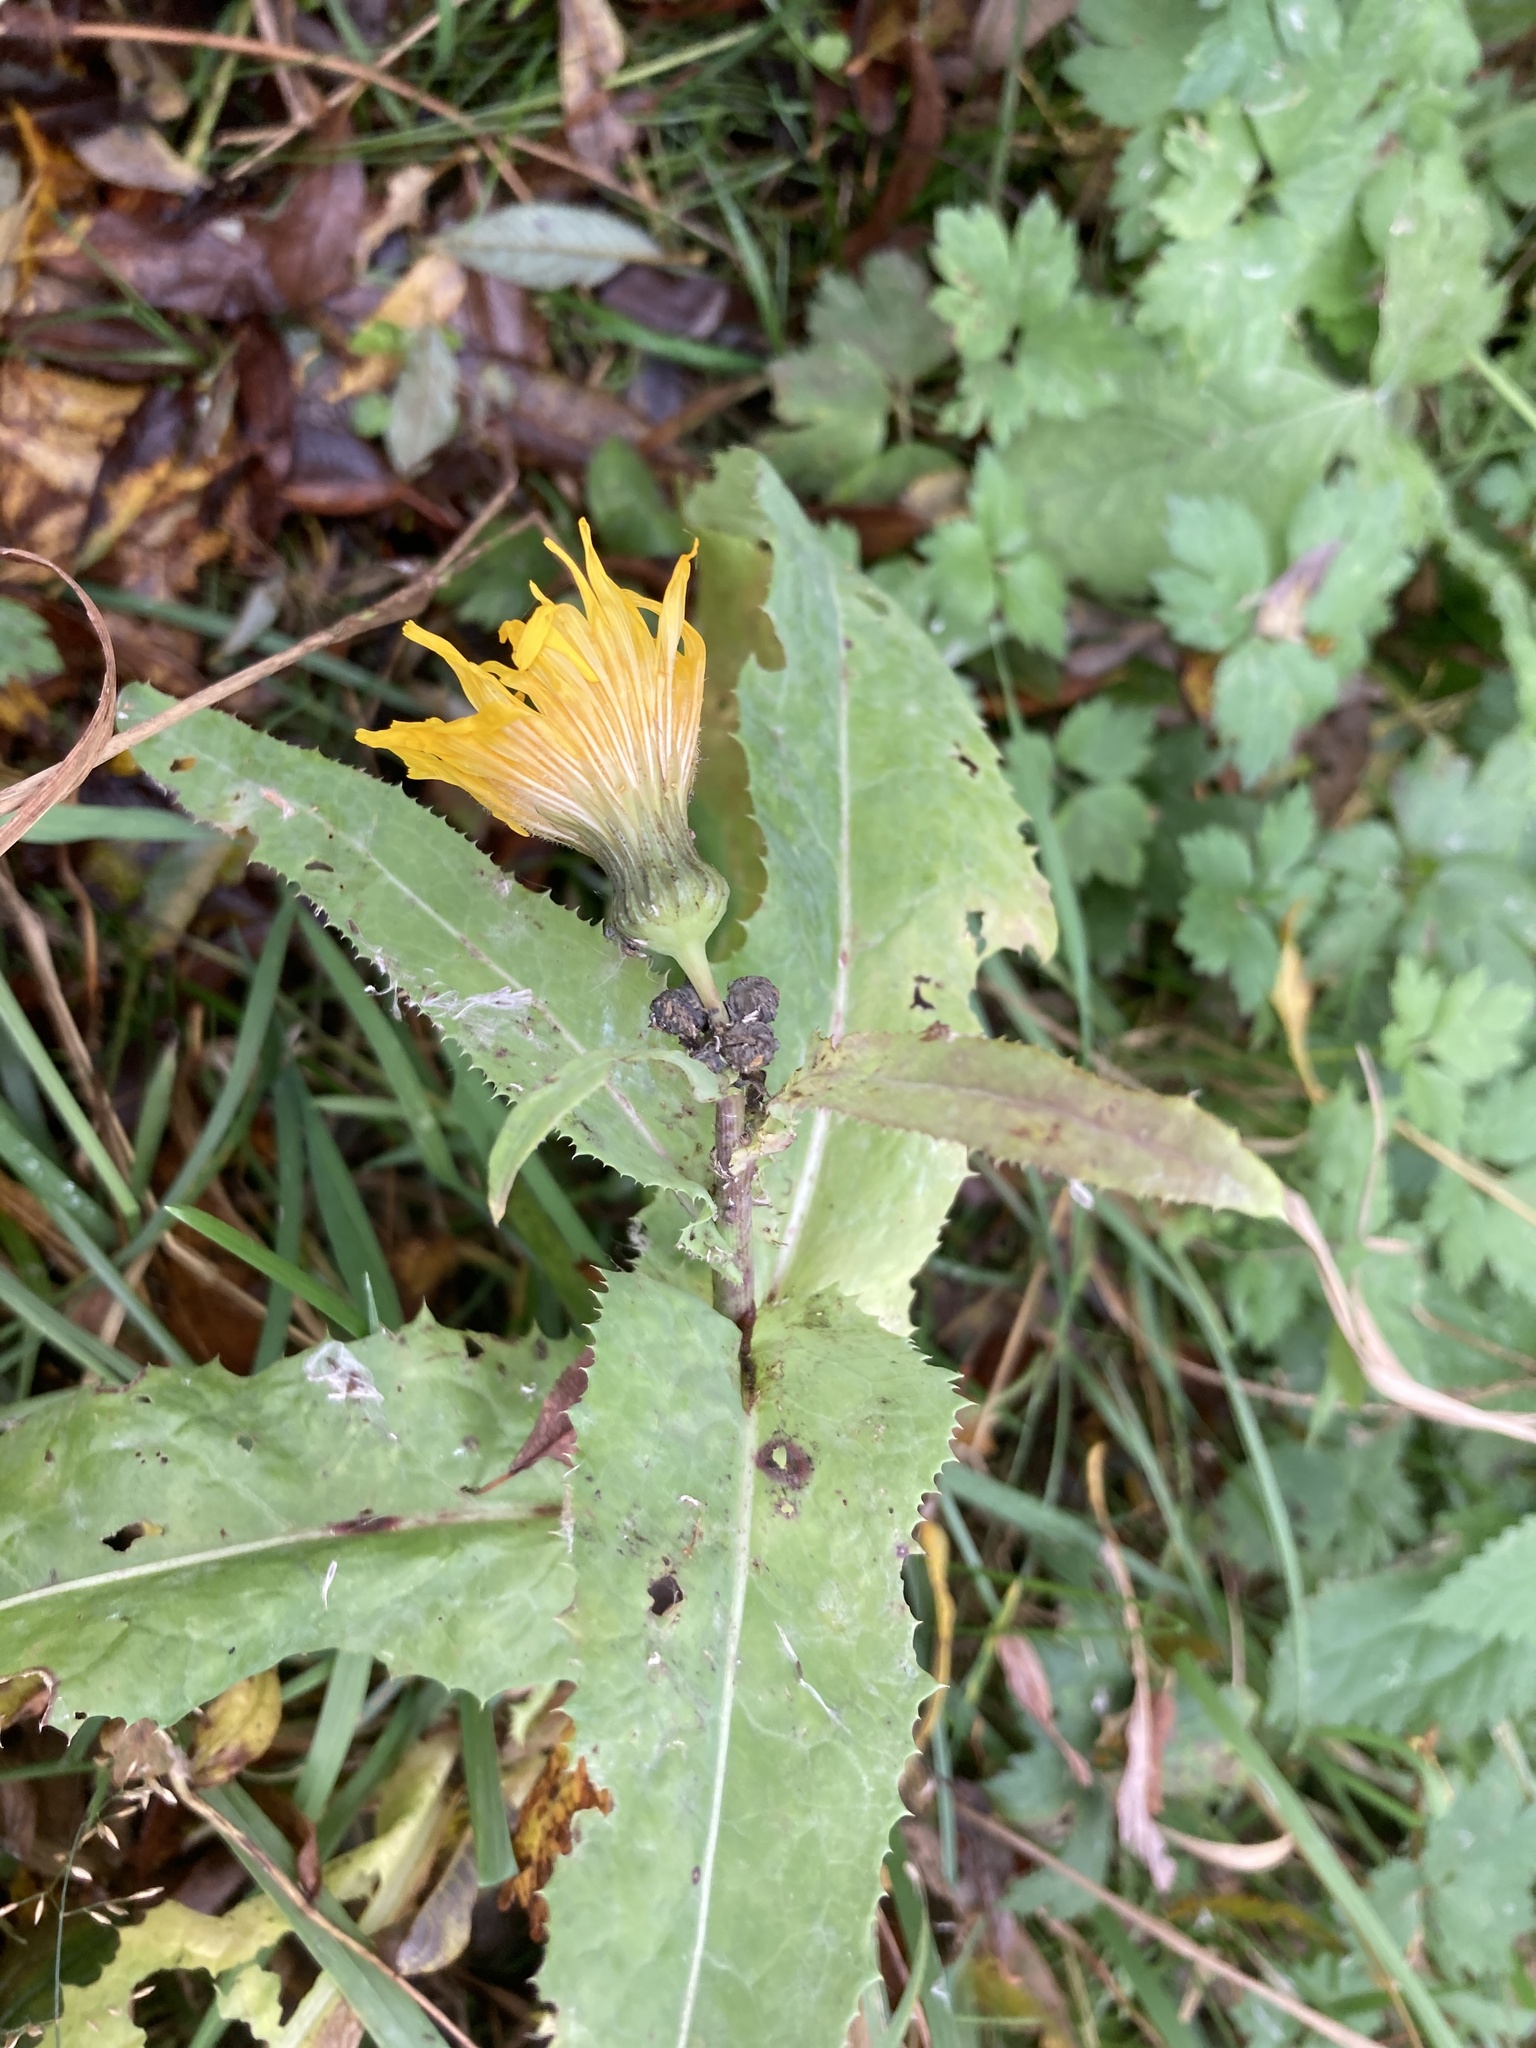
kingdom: Plantae
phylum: Tracheophyta
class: Magnoliopsida
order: Asterales
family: Asteraceae
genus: Sonchus
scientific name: Sonchus arvensis
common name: Perennial sow-thistle
